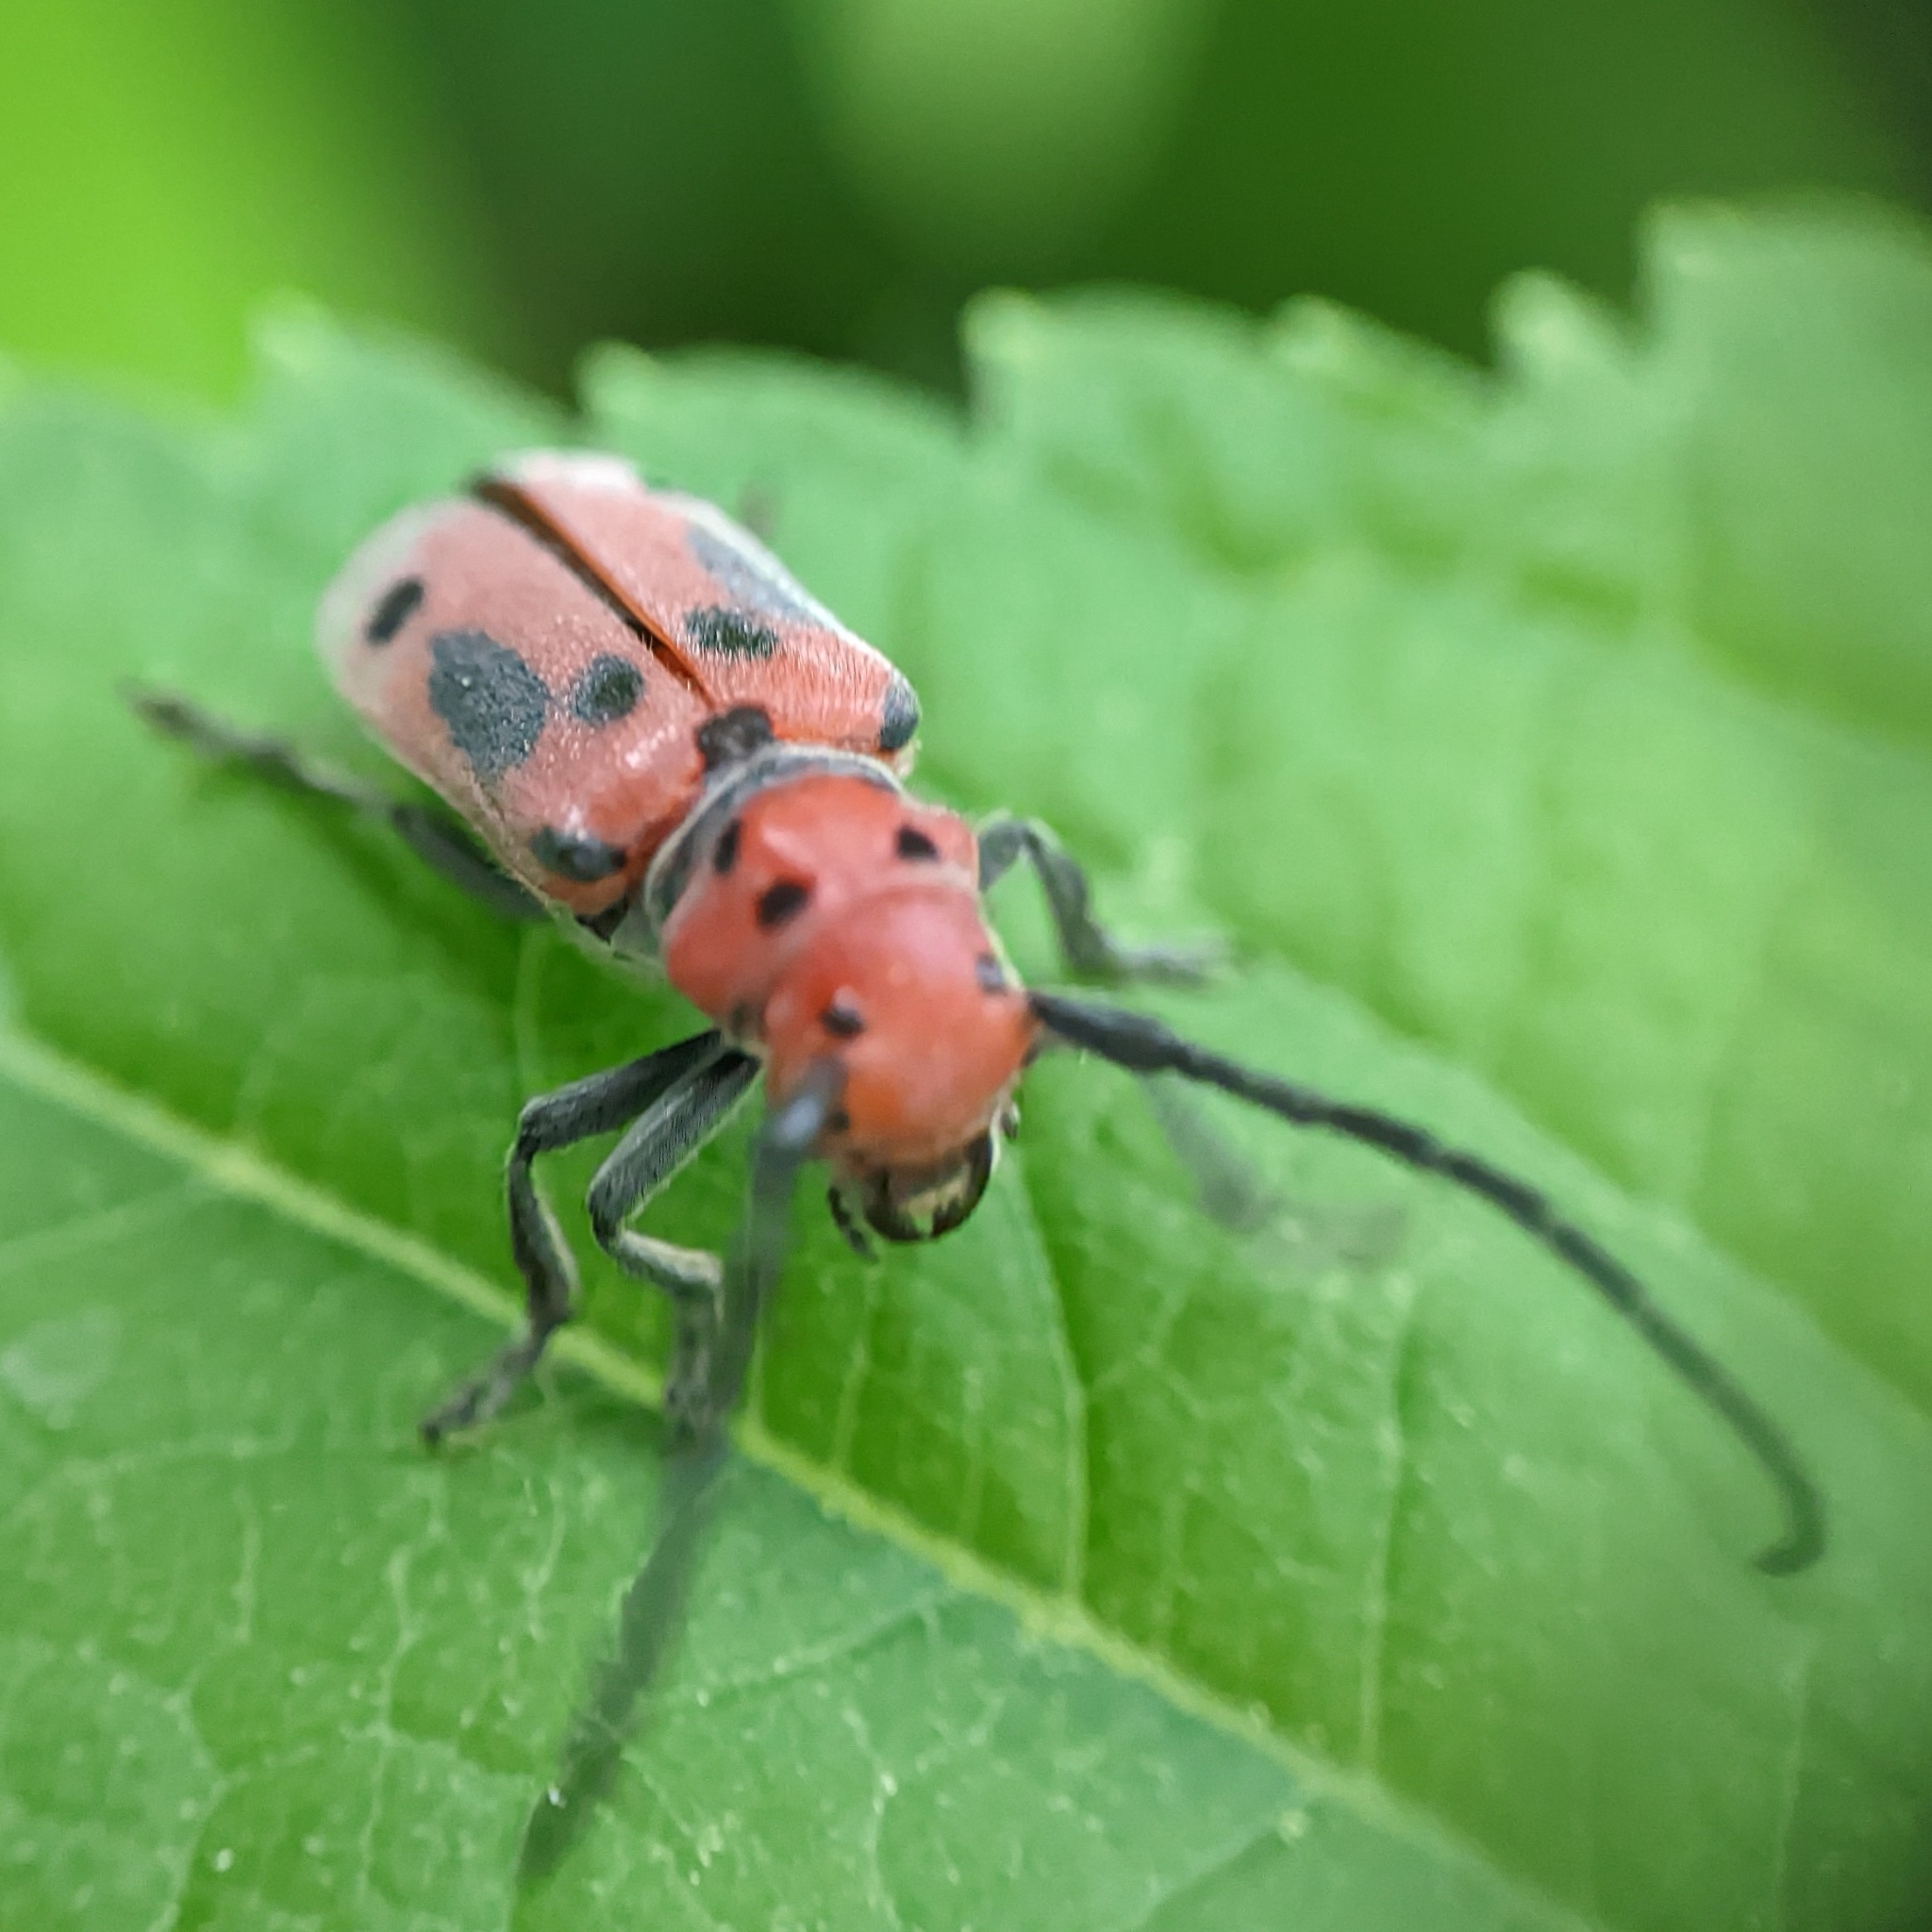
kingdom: Animalia
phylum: Arthropoda
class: Insecta
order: Coleoptera
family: Cerambycidae
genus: Tetraopes
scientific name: Tetraopes tetrophthalmus
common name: Red milkweed beetle
